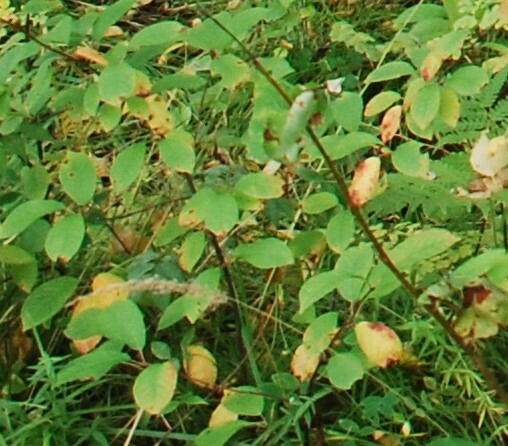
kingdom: Plantae
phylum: Tracheophyta
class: Magnoliopsida
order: Rosales
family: Rosaceae
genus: Prunus
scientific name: Prunus padus
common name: Bird cherry
